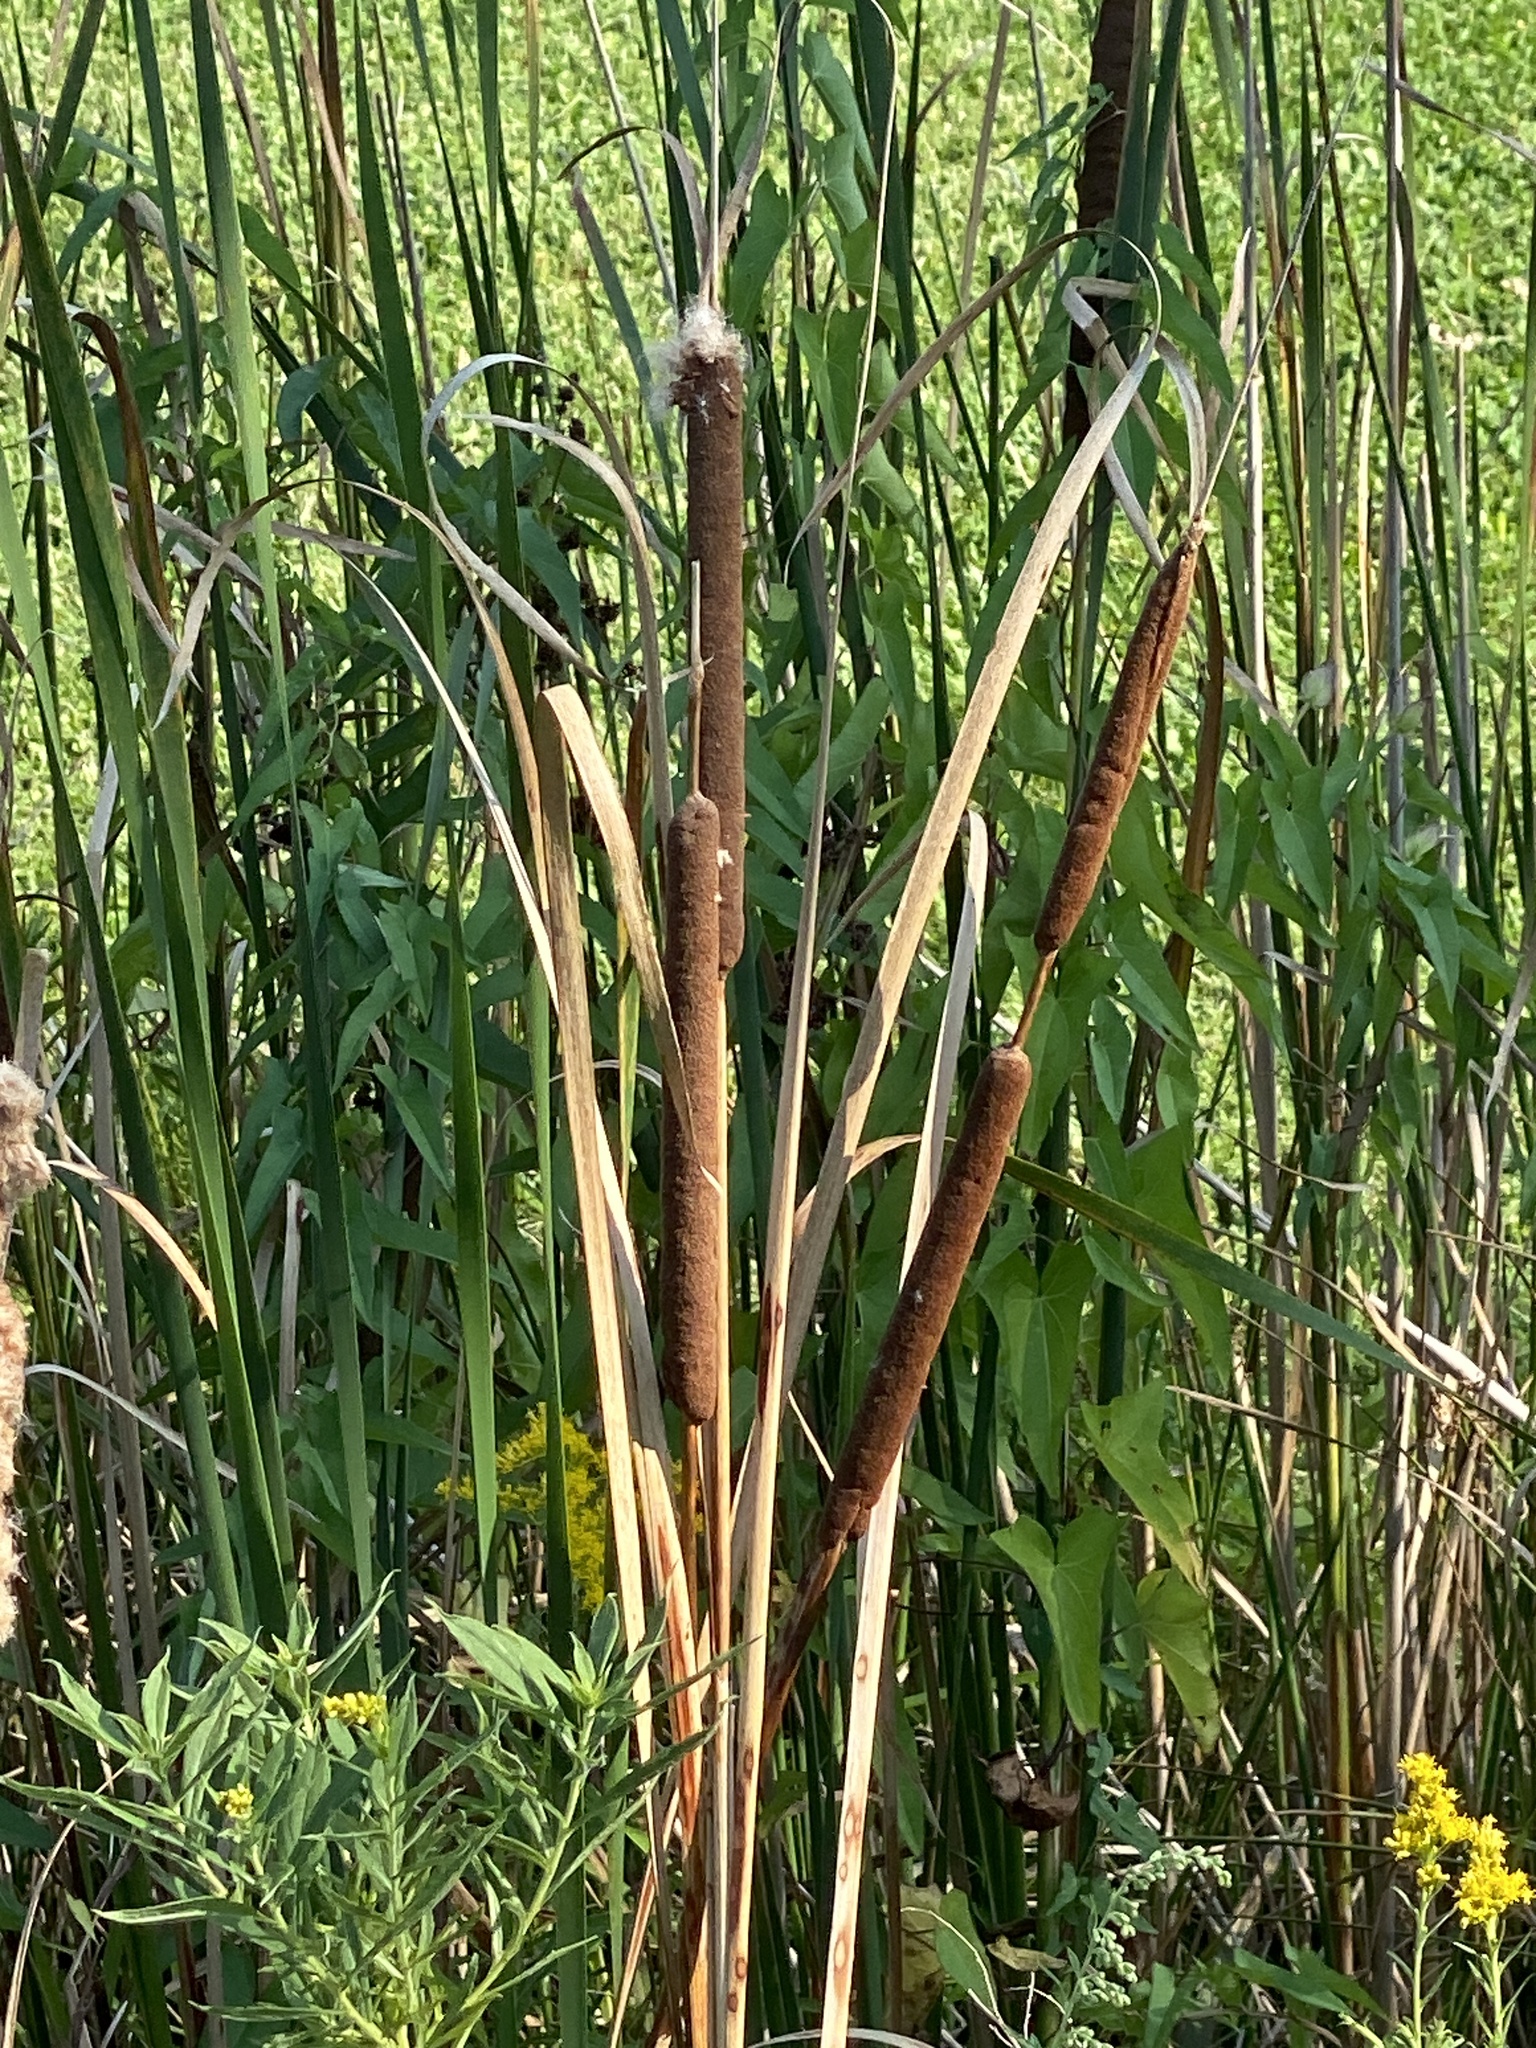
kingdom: Plantae
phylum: Tracheophyta
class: Liliopsida
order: Poales
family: Typhaceae
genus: Typha
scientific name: Typha angustifolia
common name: Lesser bulrush
